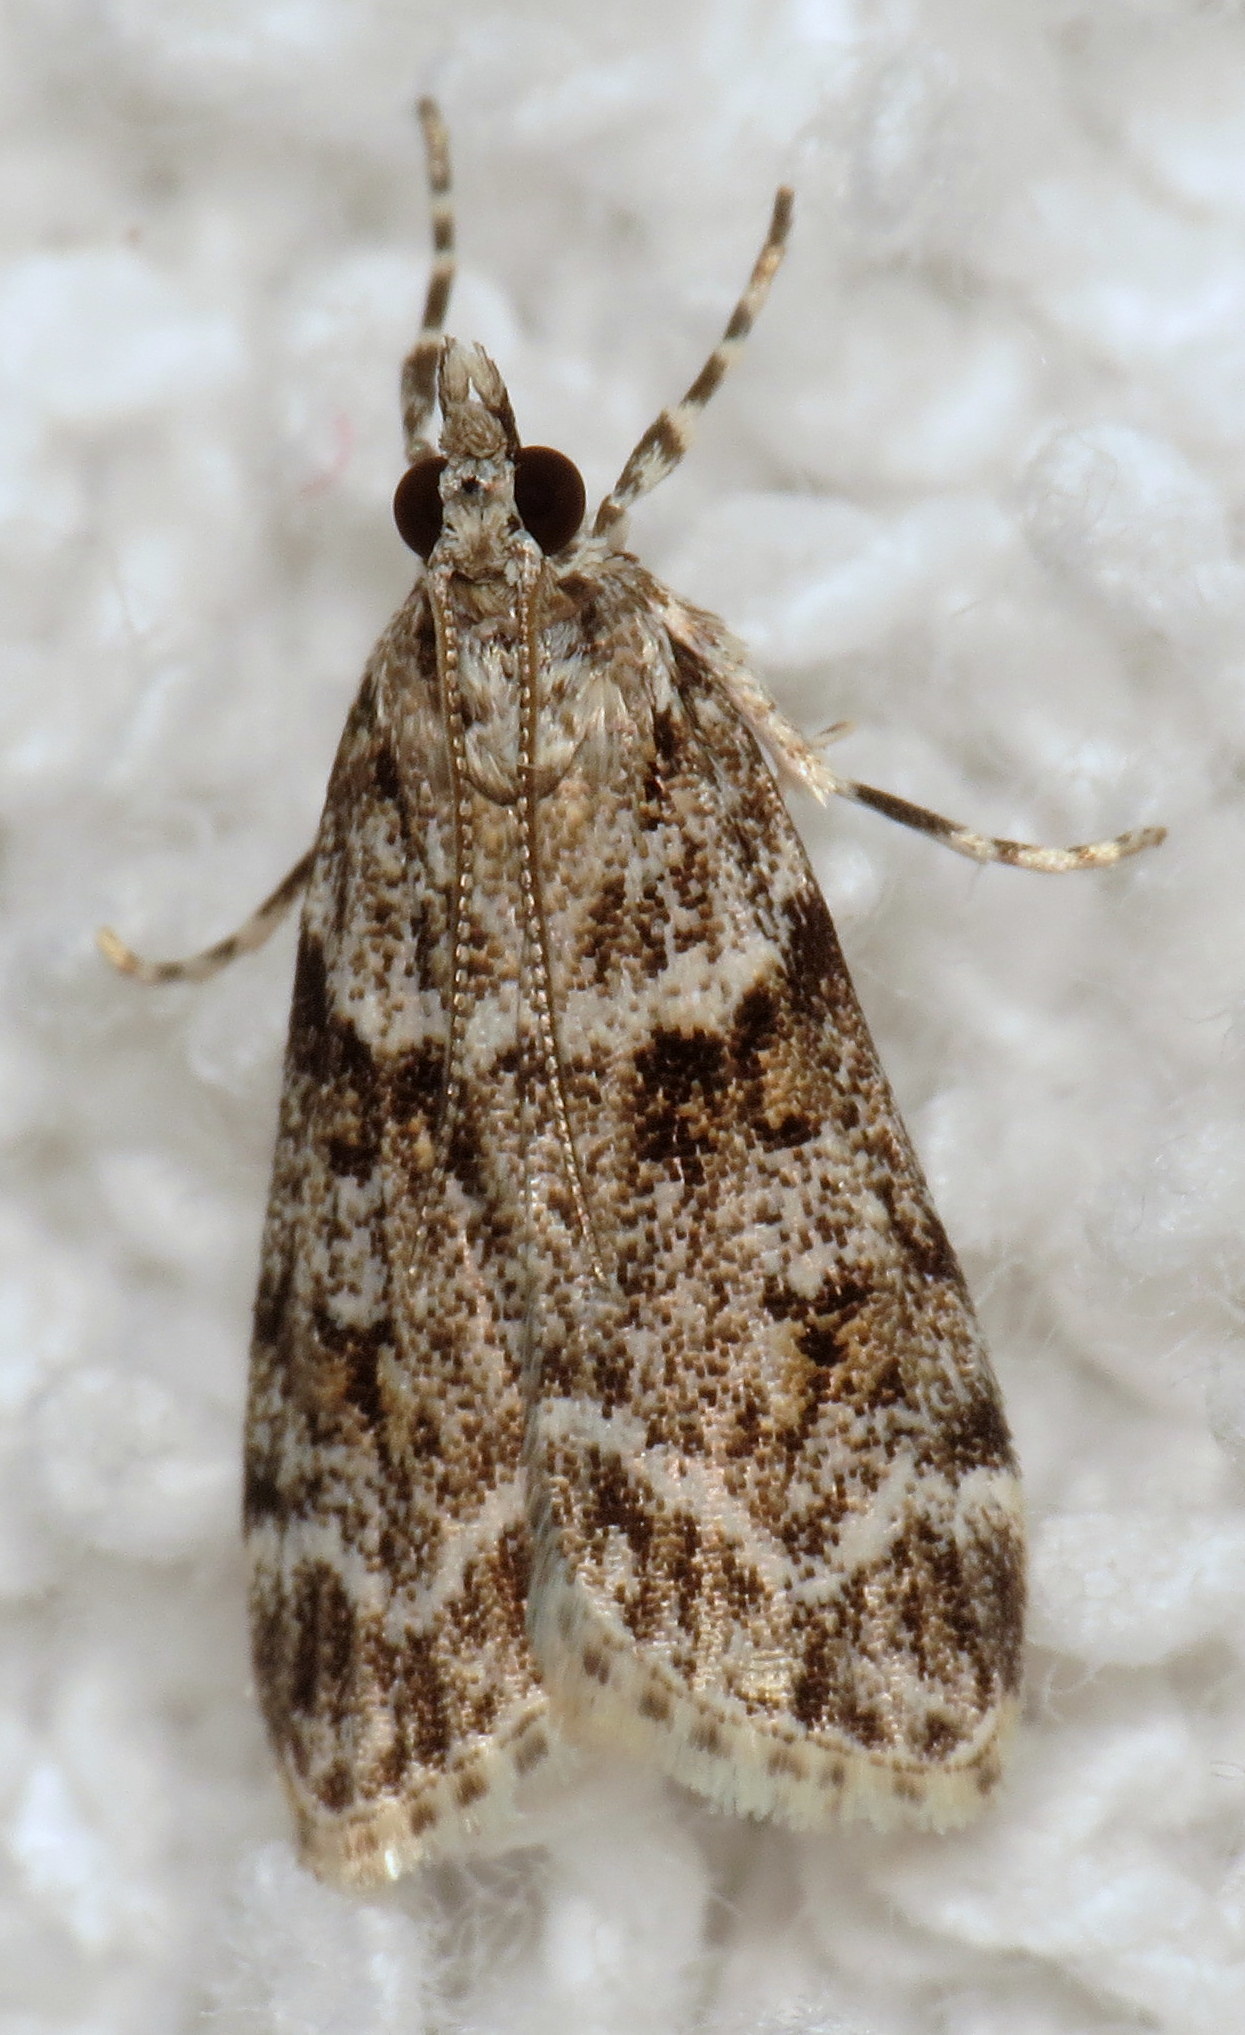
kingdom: Animalia
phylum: Arthropoda
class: Insecta
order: Lepidoptera
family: Crambidae
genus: Scoparia
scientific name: Scoparia biplagialis
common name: Double-striped scoparia moth
